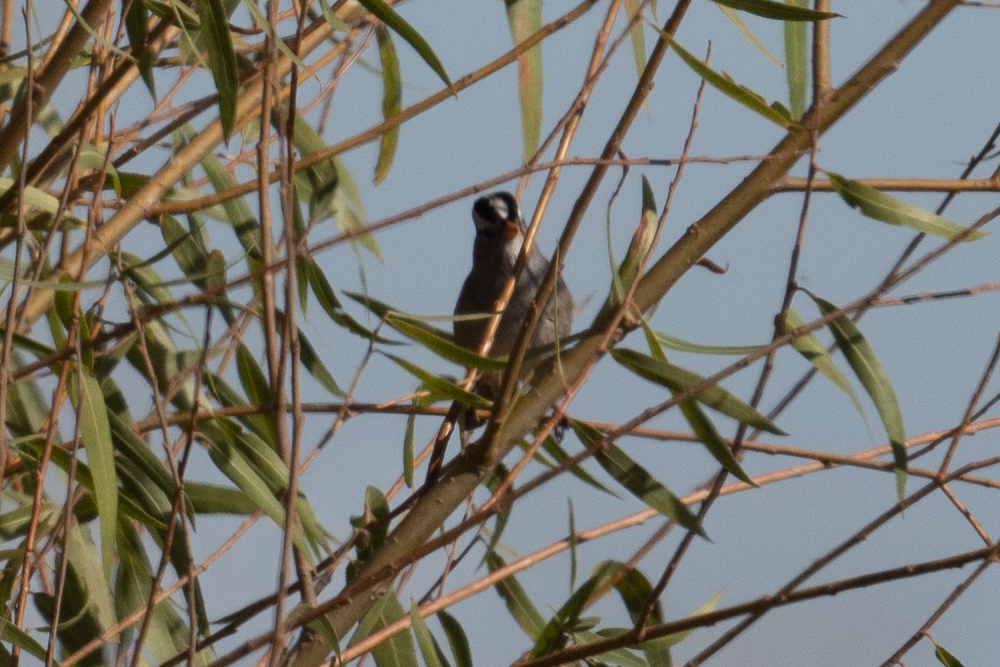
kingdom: Animalia
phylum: Chordata
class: Aves
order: Passeriformes
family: Passerellidae
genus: Zonotrichia
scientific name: Zonotrichia leucophrys
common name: White-crowned sparrow
